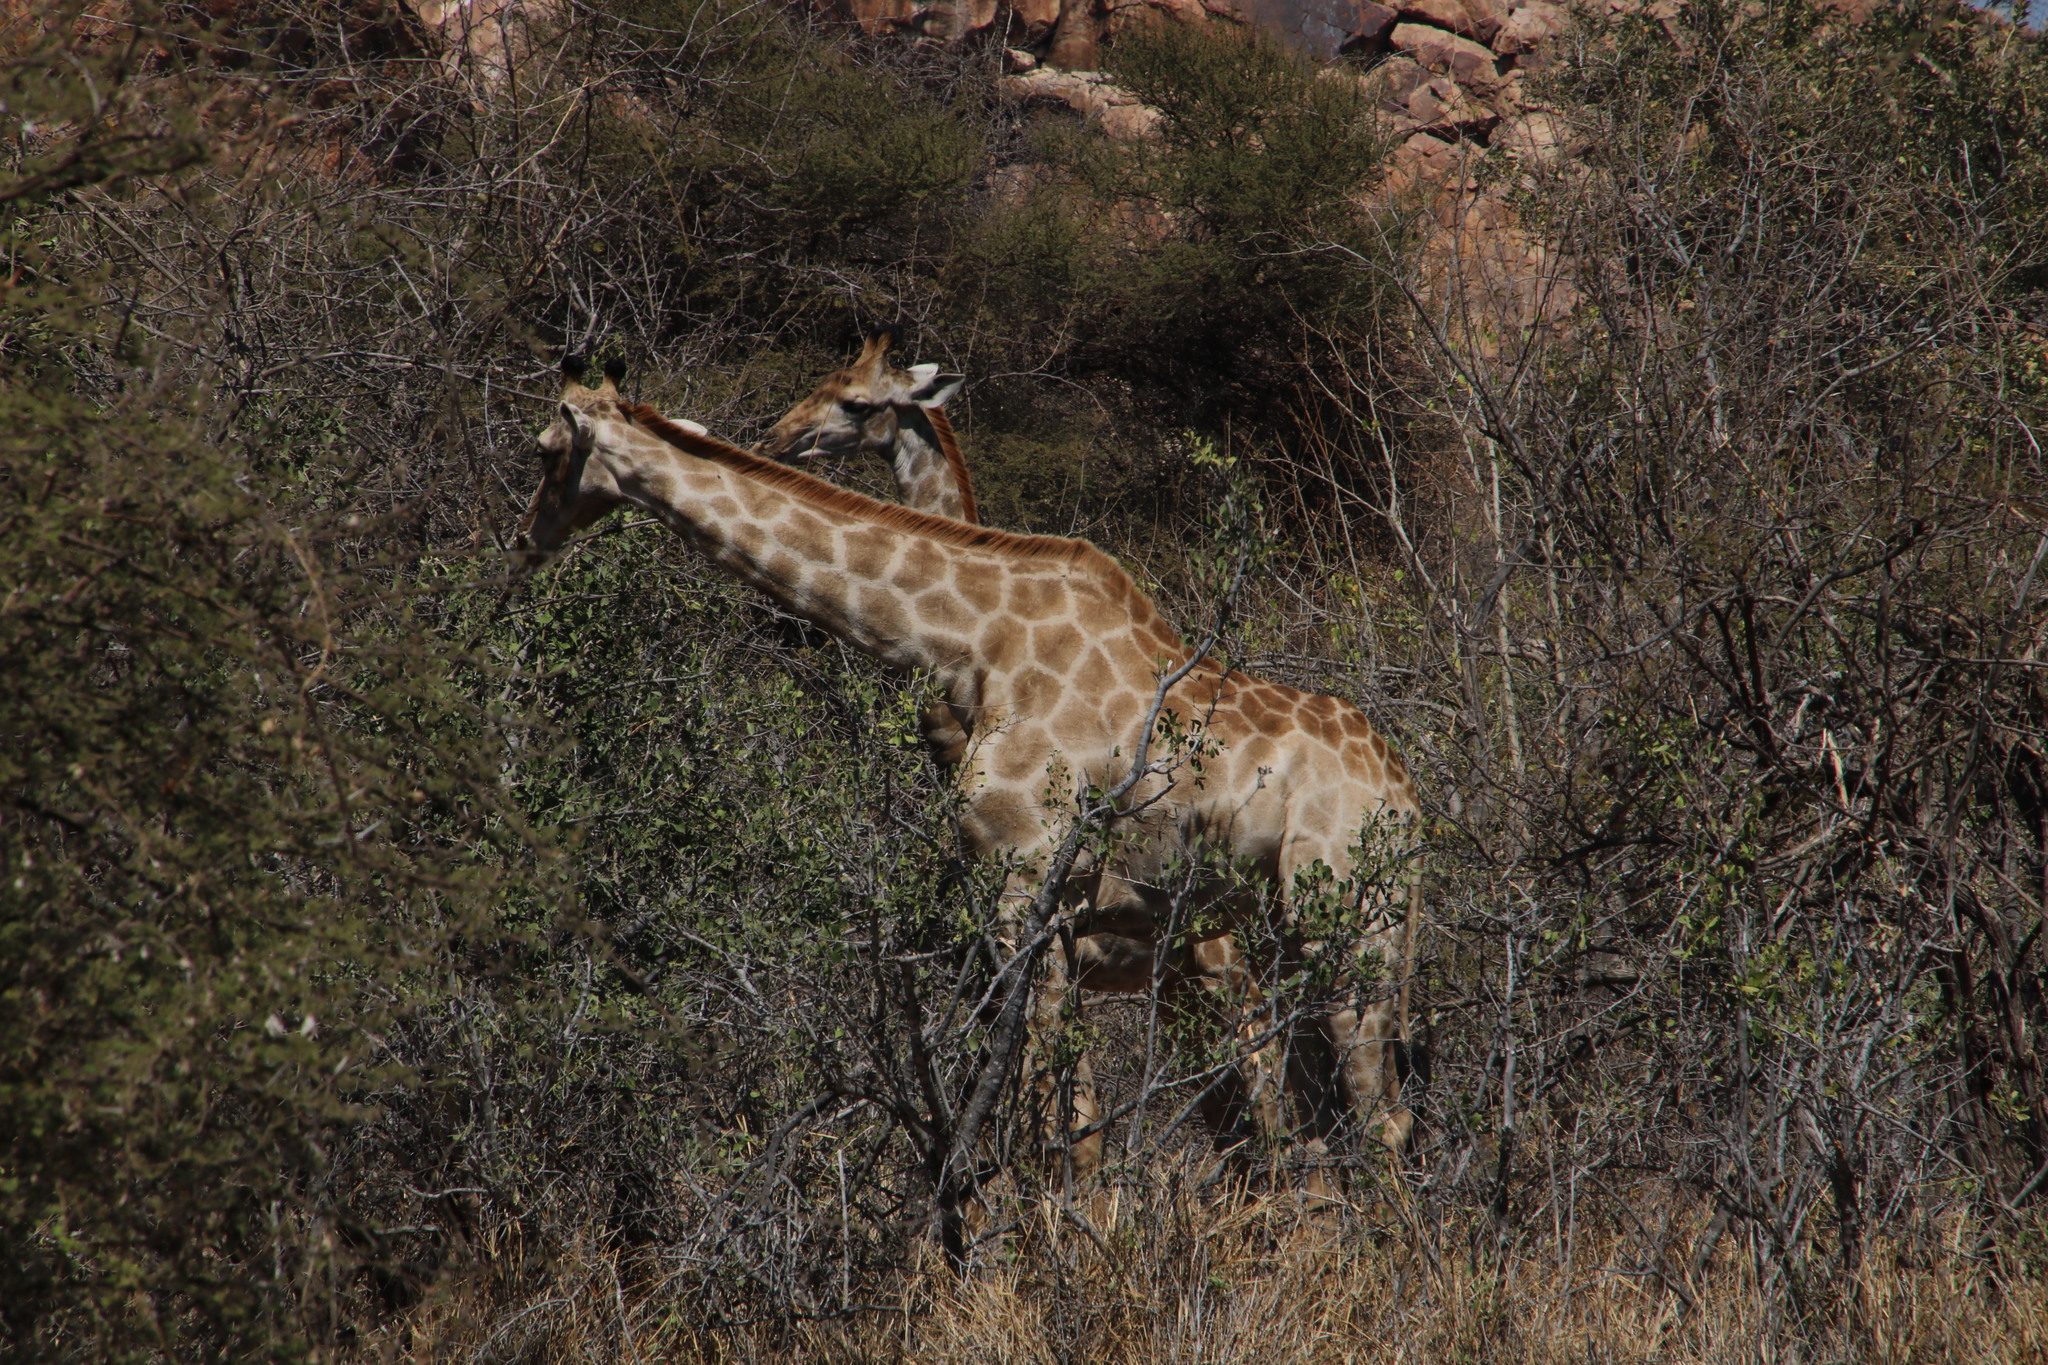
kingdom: Animalia
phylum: Chordata
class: Mammalia
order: Artiodactyla
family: Giraffidae
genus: Giraffa
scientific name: Giraffa giraffa
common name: Southern giraffe
